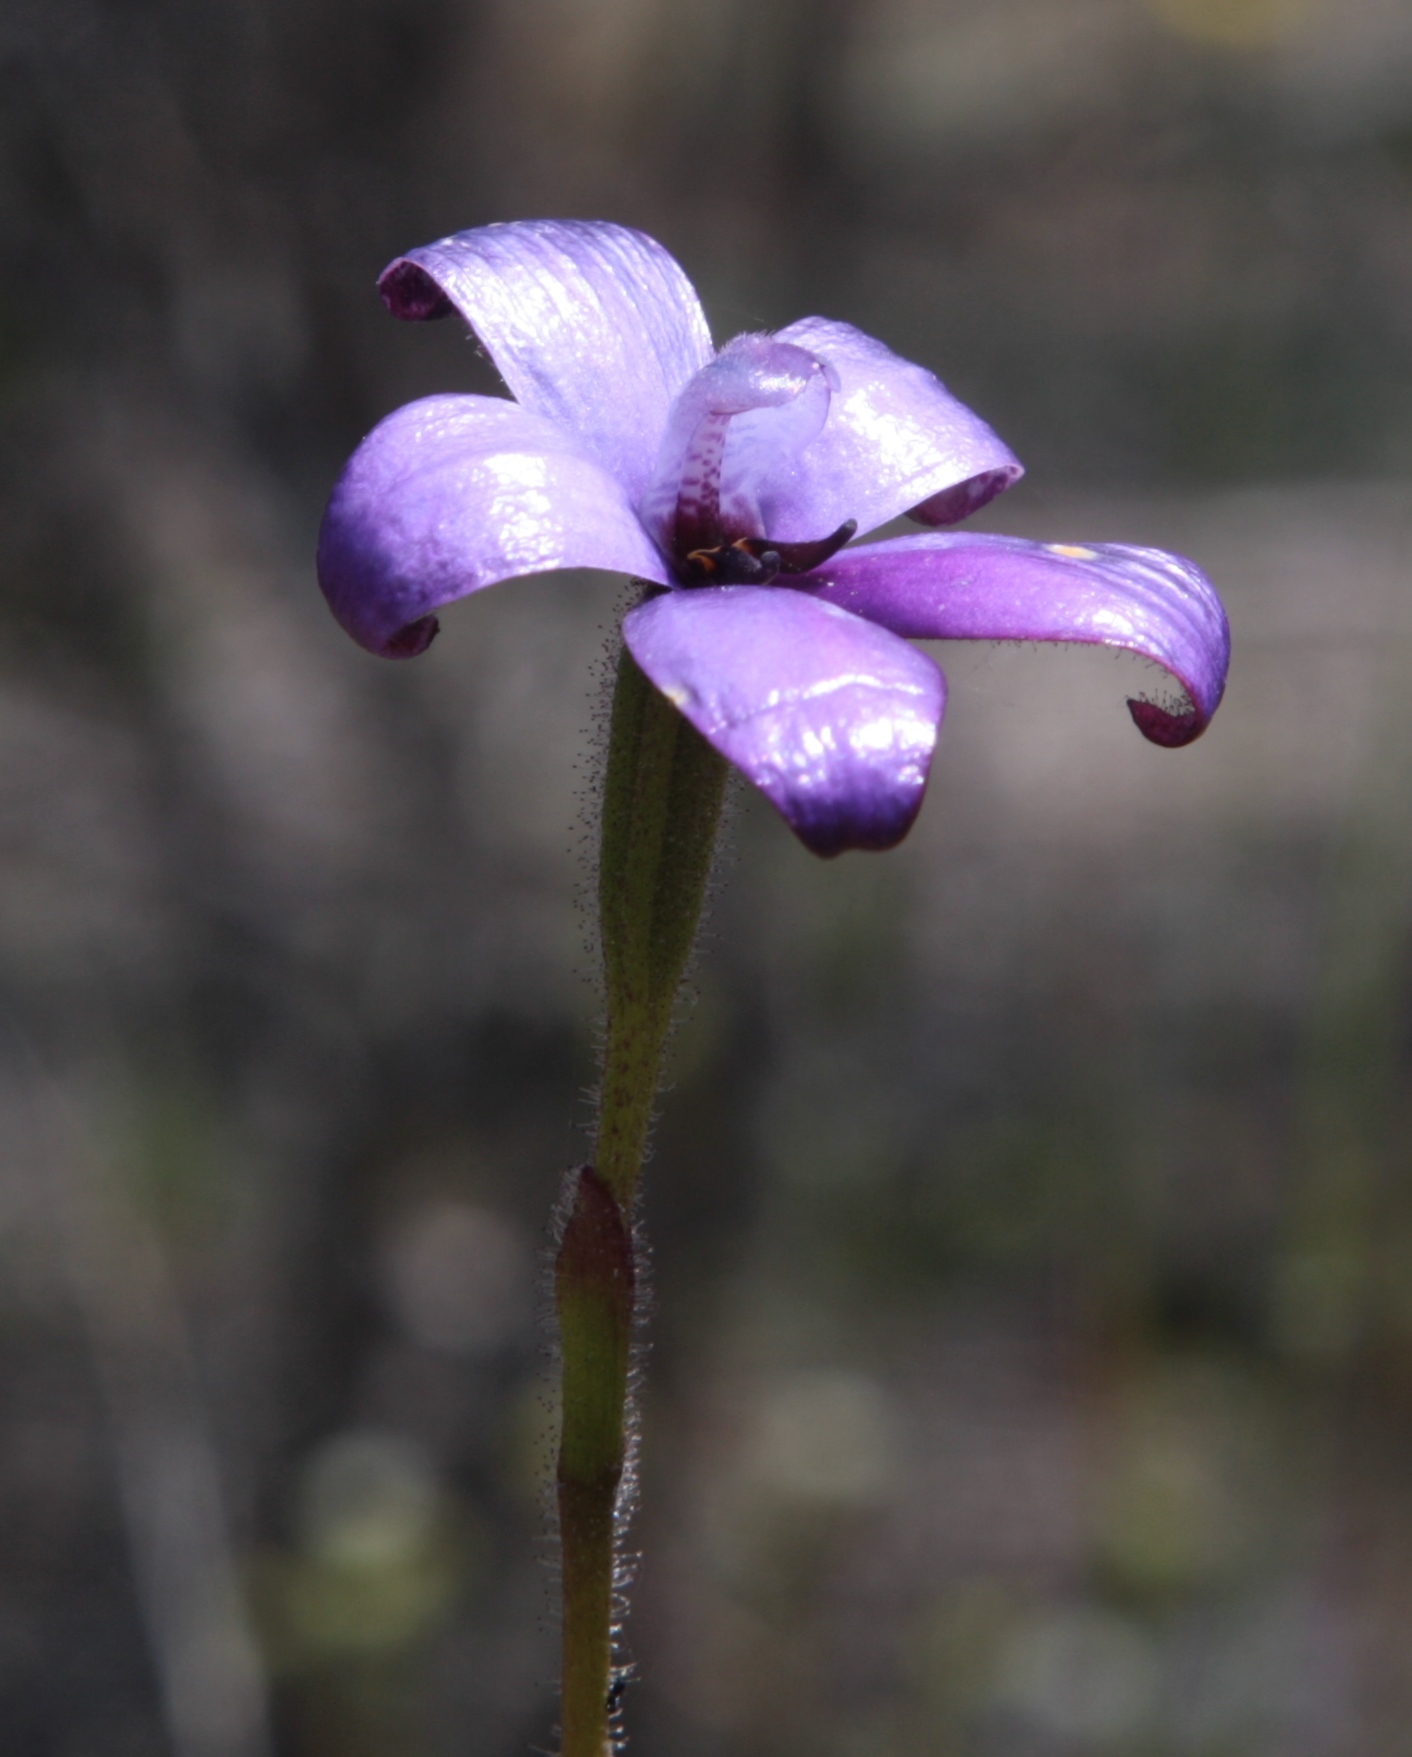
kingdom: Plantae
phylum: Tracheophyta
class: Liliopsida
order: Asparagales
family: Orchidaceae
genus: Caladenia
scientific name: Caladenia brunonis
